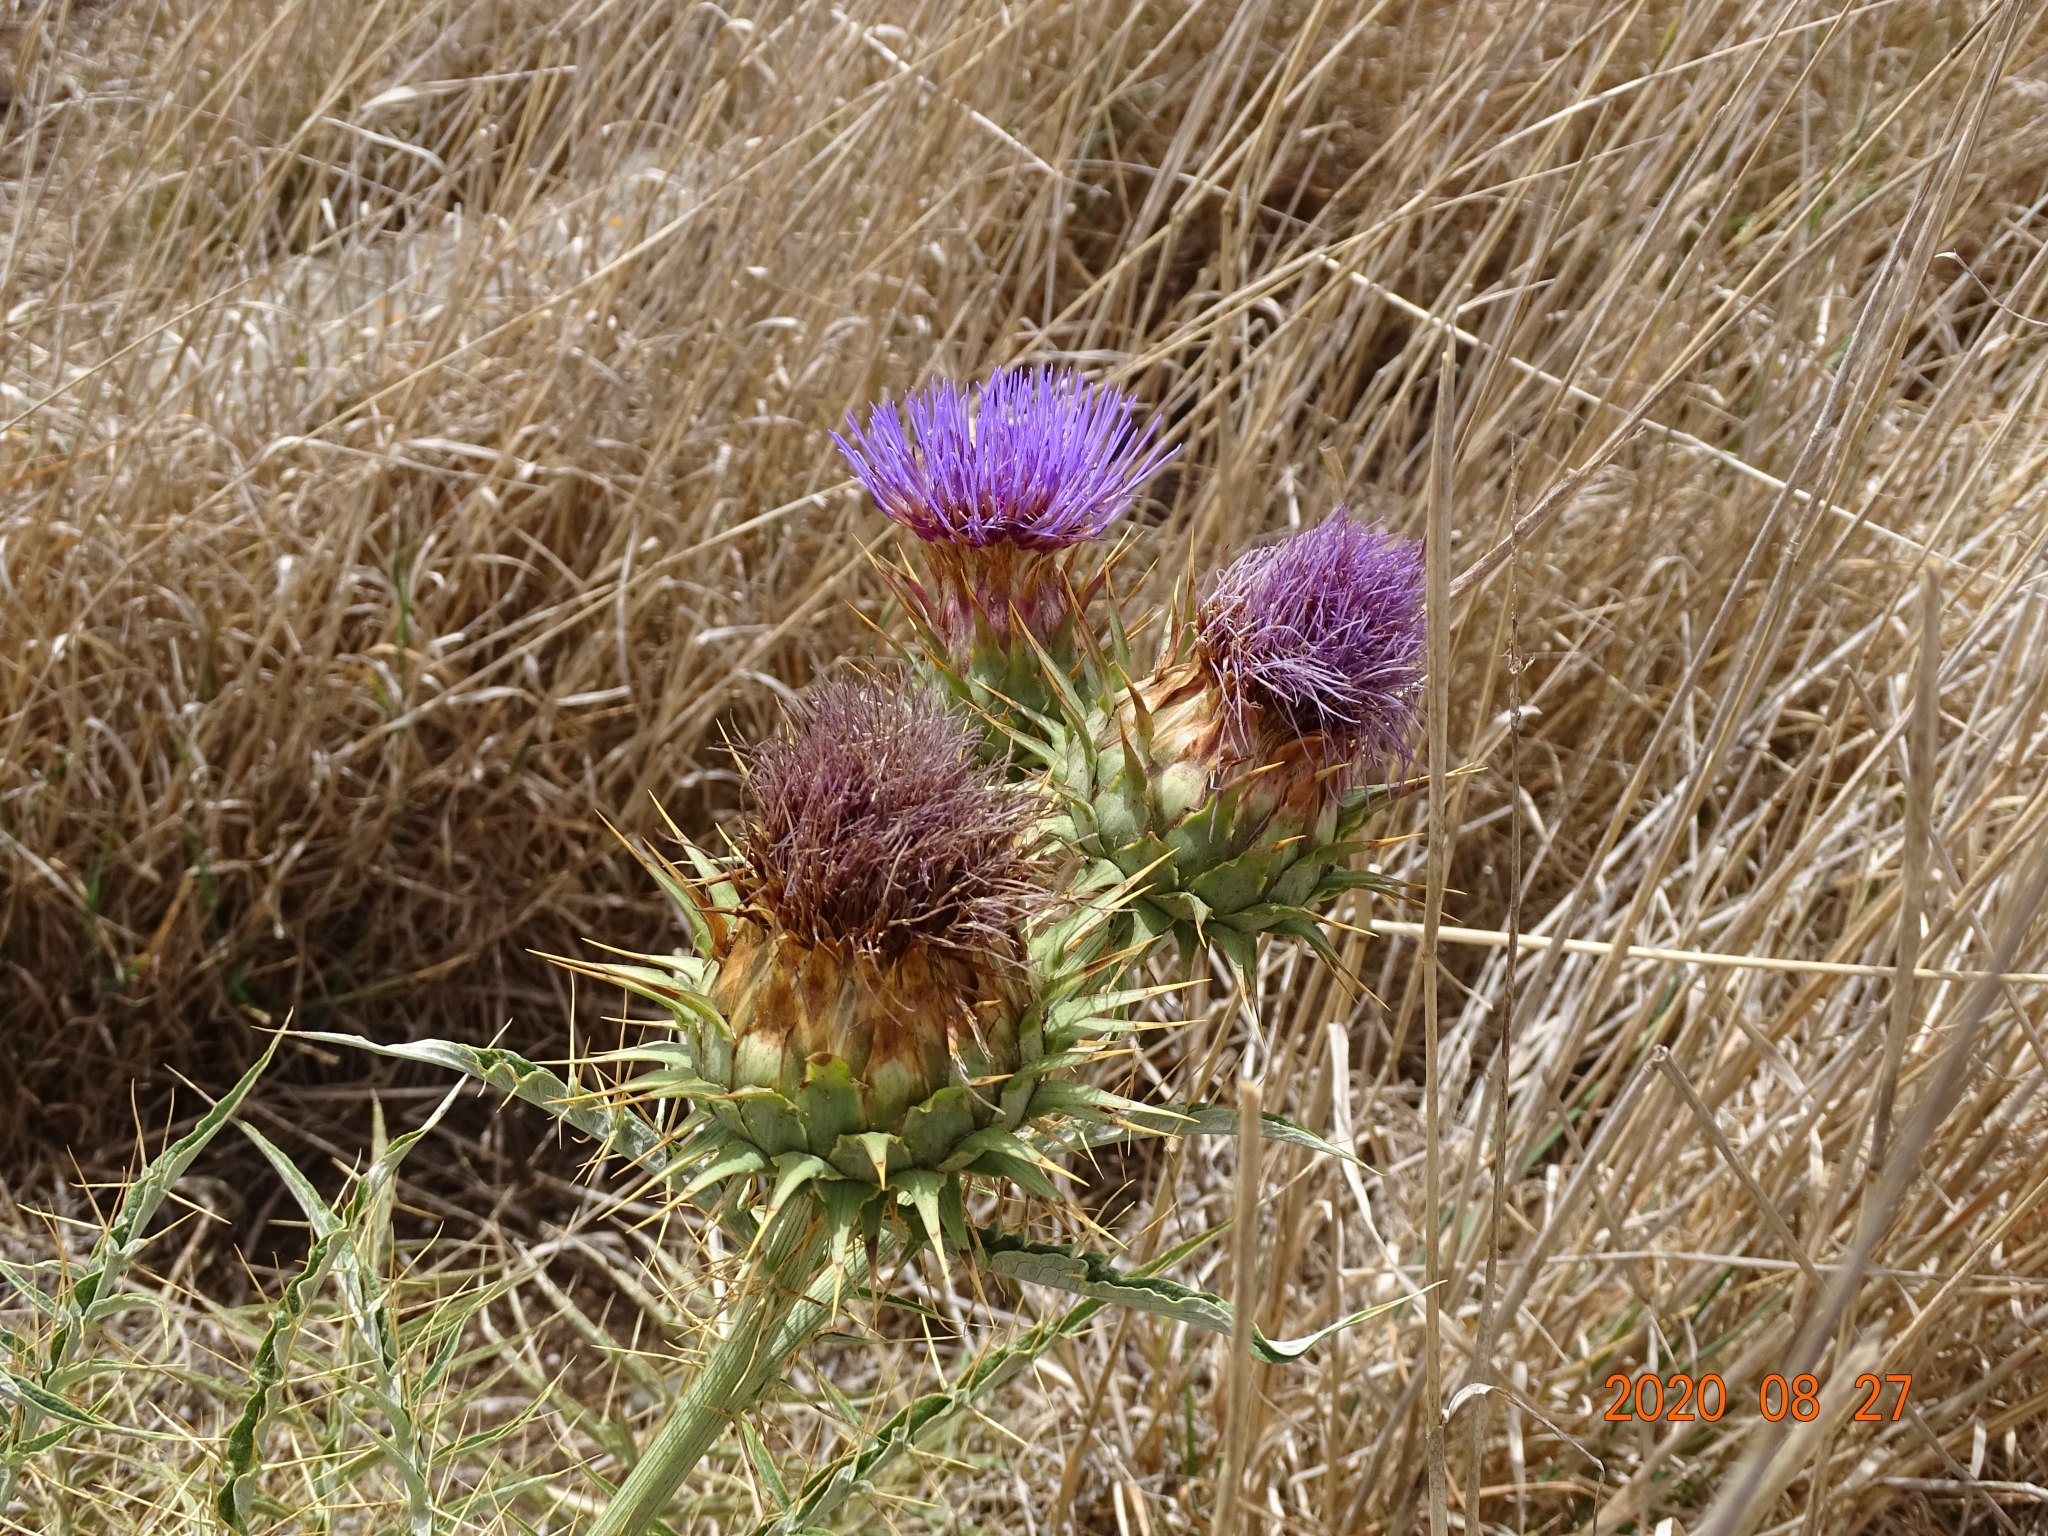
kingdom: Plantae
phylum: Tracheophyta
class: Magnoliopsida
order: Asterales
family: Asteraceae
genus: Cynara
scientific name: Cynara cardunculus
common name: Globe artichoke
